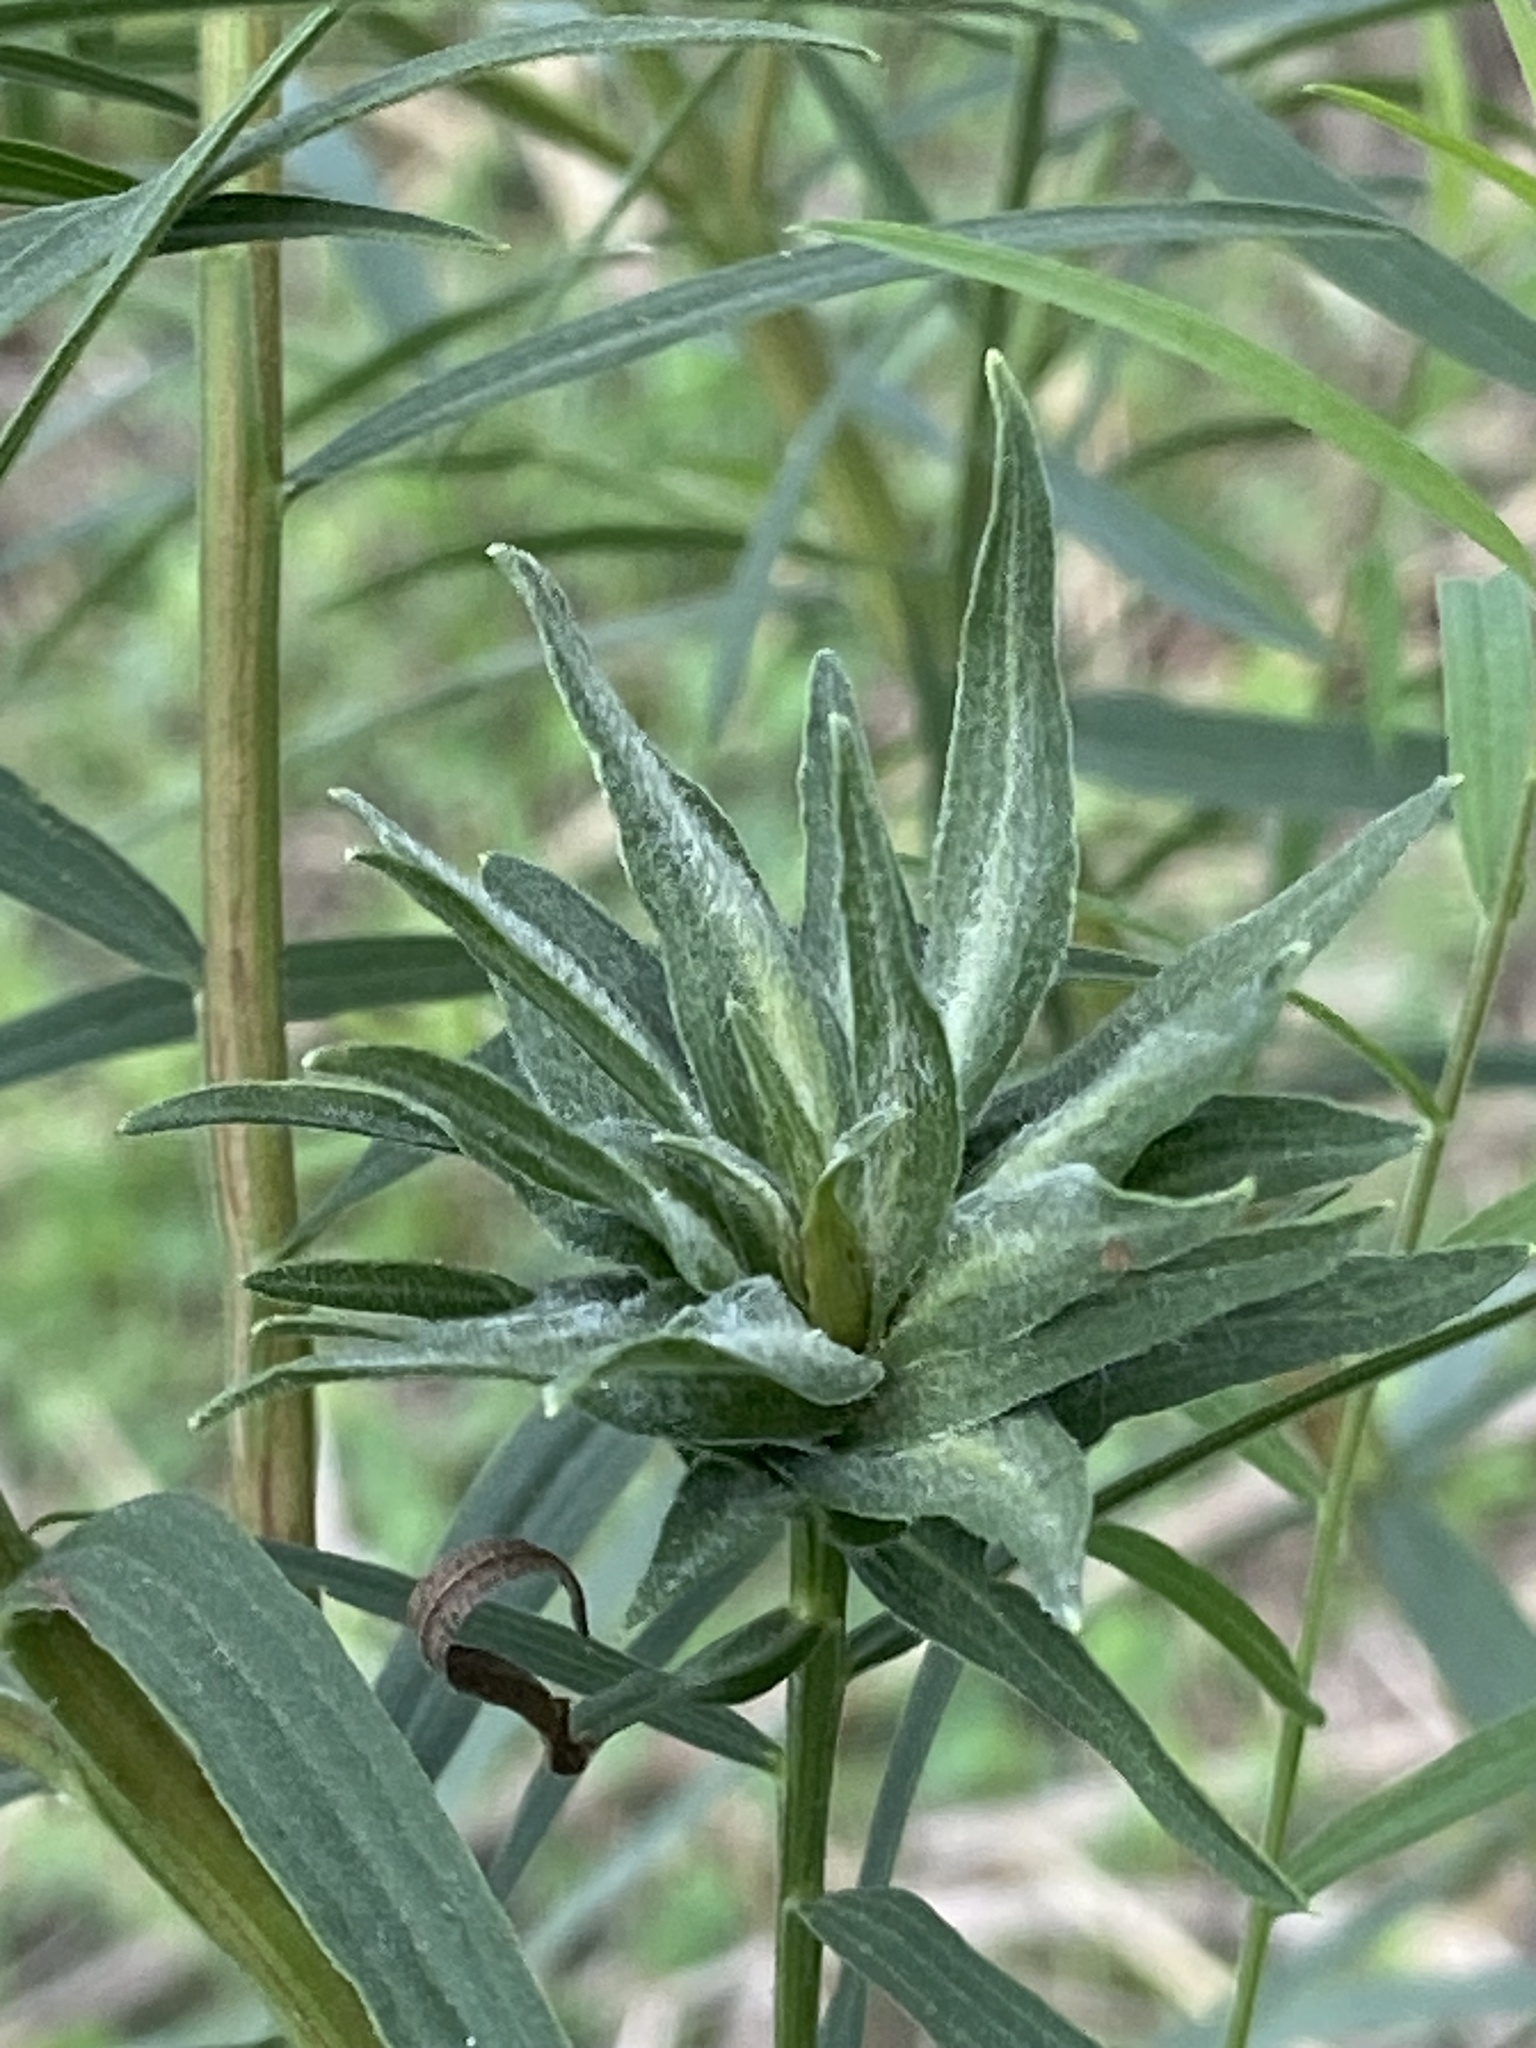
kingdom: Animalia
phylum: Arthropoda
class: Insecta
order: Diptera
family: Cecidomyiidae
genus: Asphondylia
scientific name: Asphondylia pseudorosa
